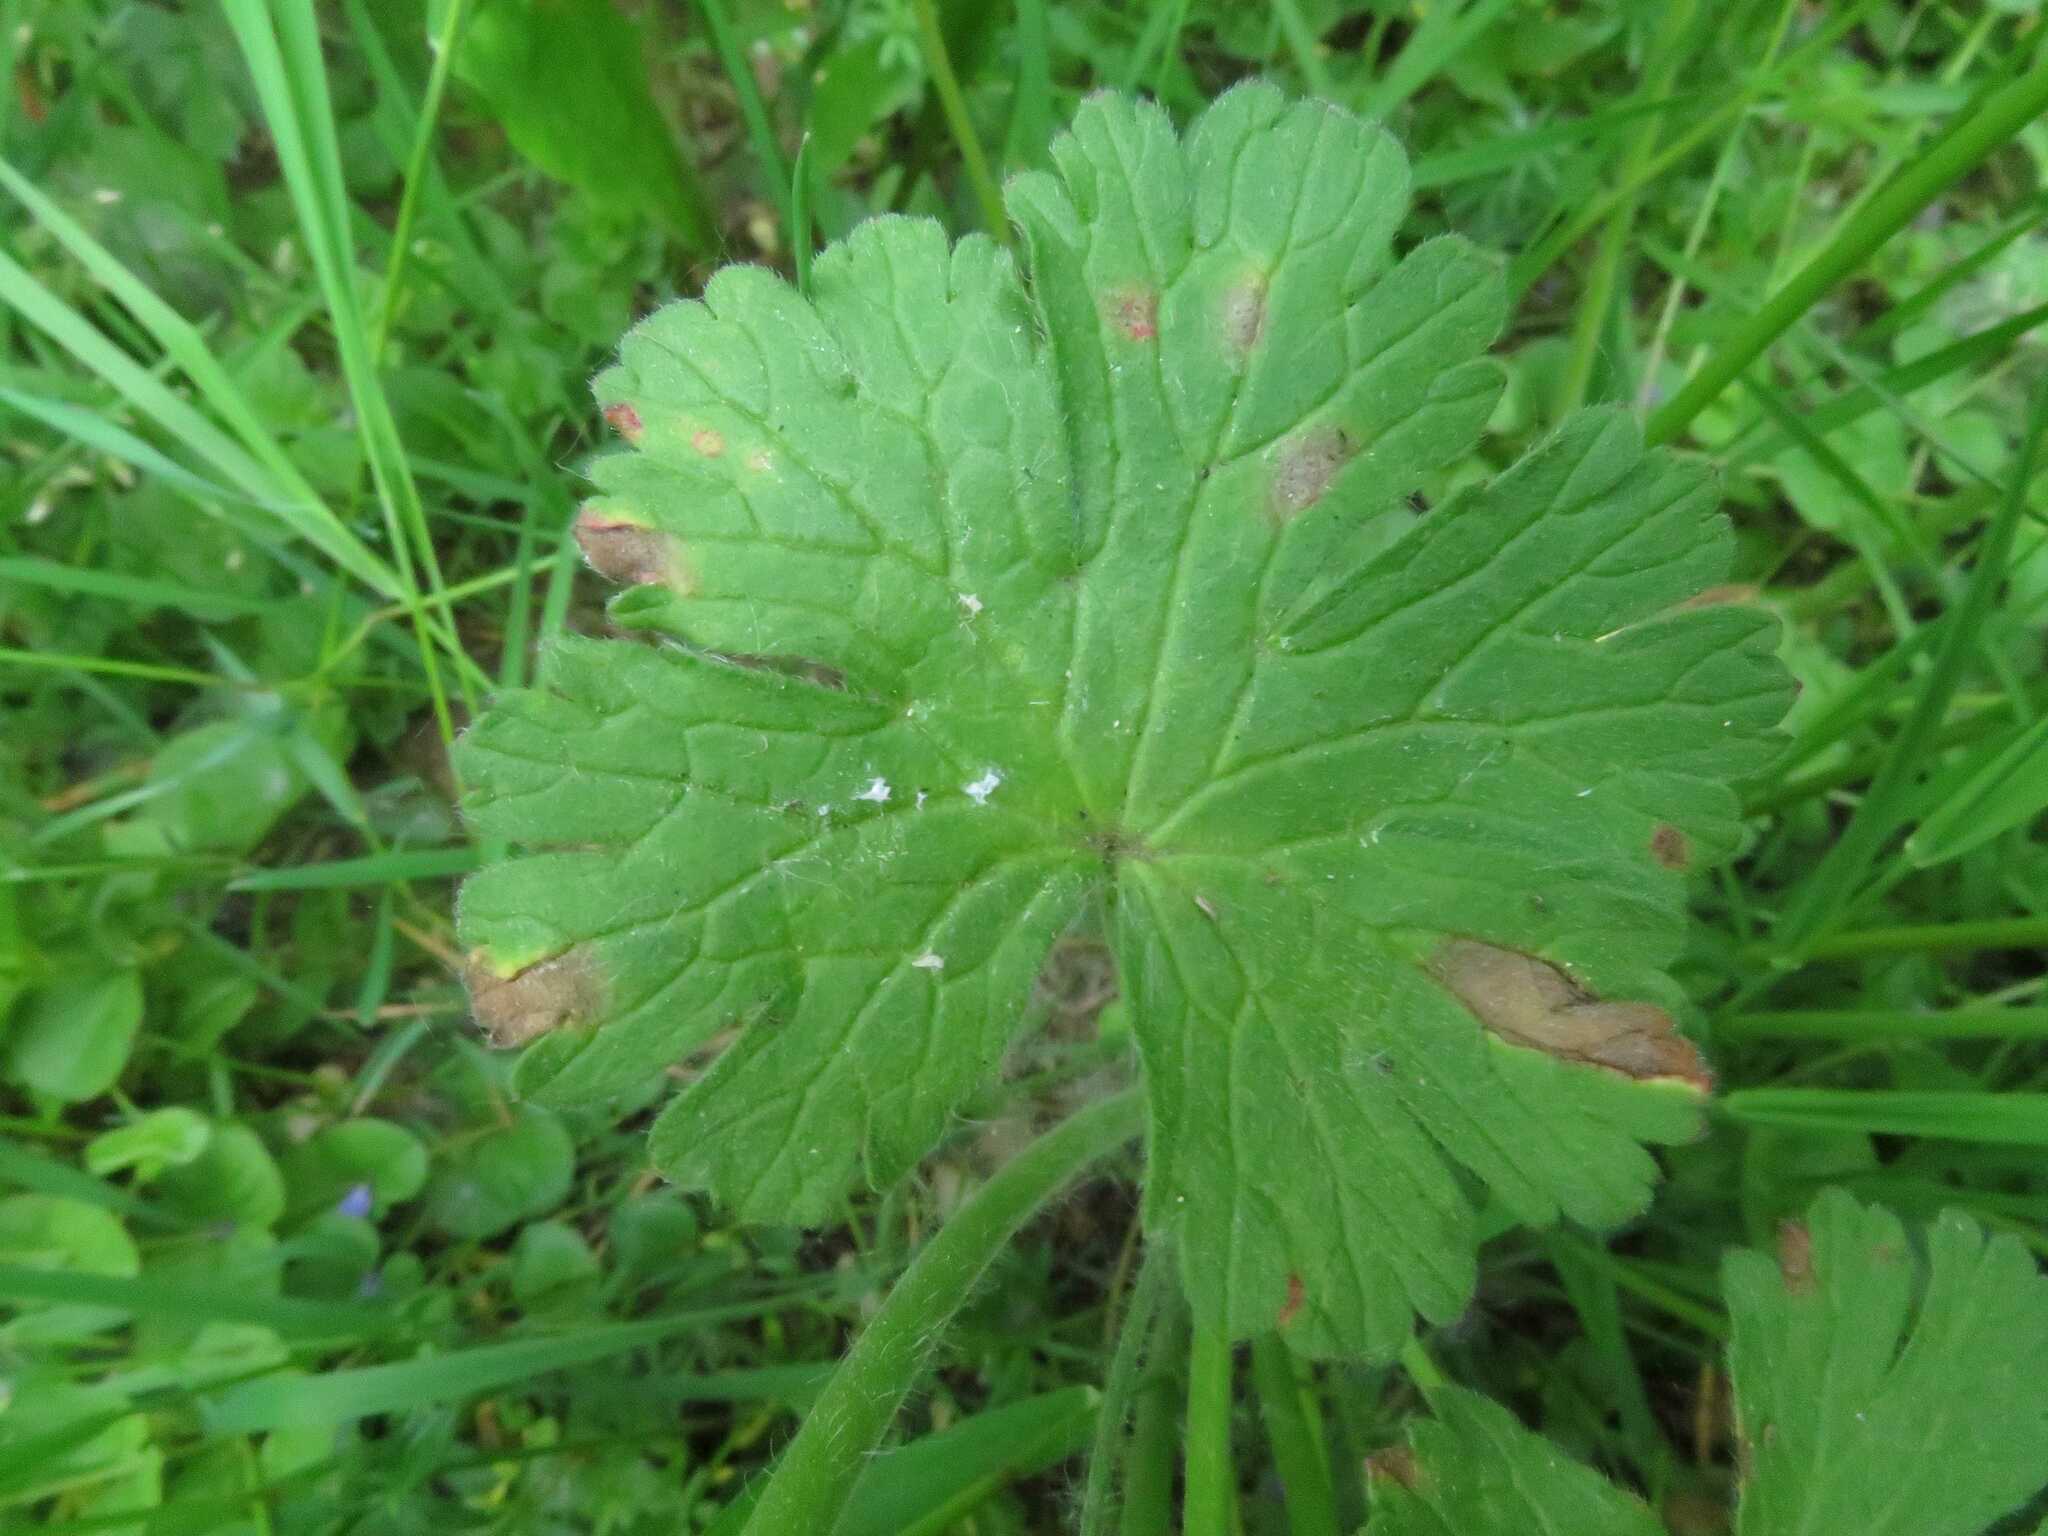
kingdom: Plantae
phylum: Tracheophyta
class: Magnoliopsida
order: Geraniales
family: Geraniaceae
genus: Geranium
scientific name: Geranium pyrenaicum
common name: Hedgerow crane's-bill
